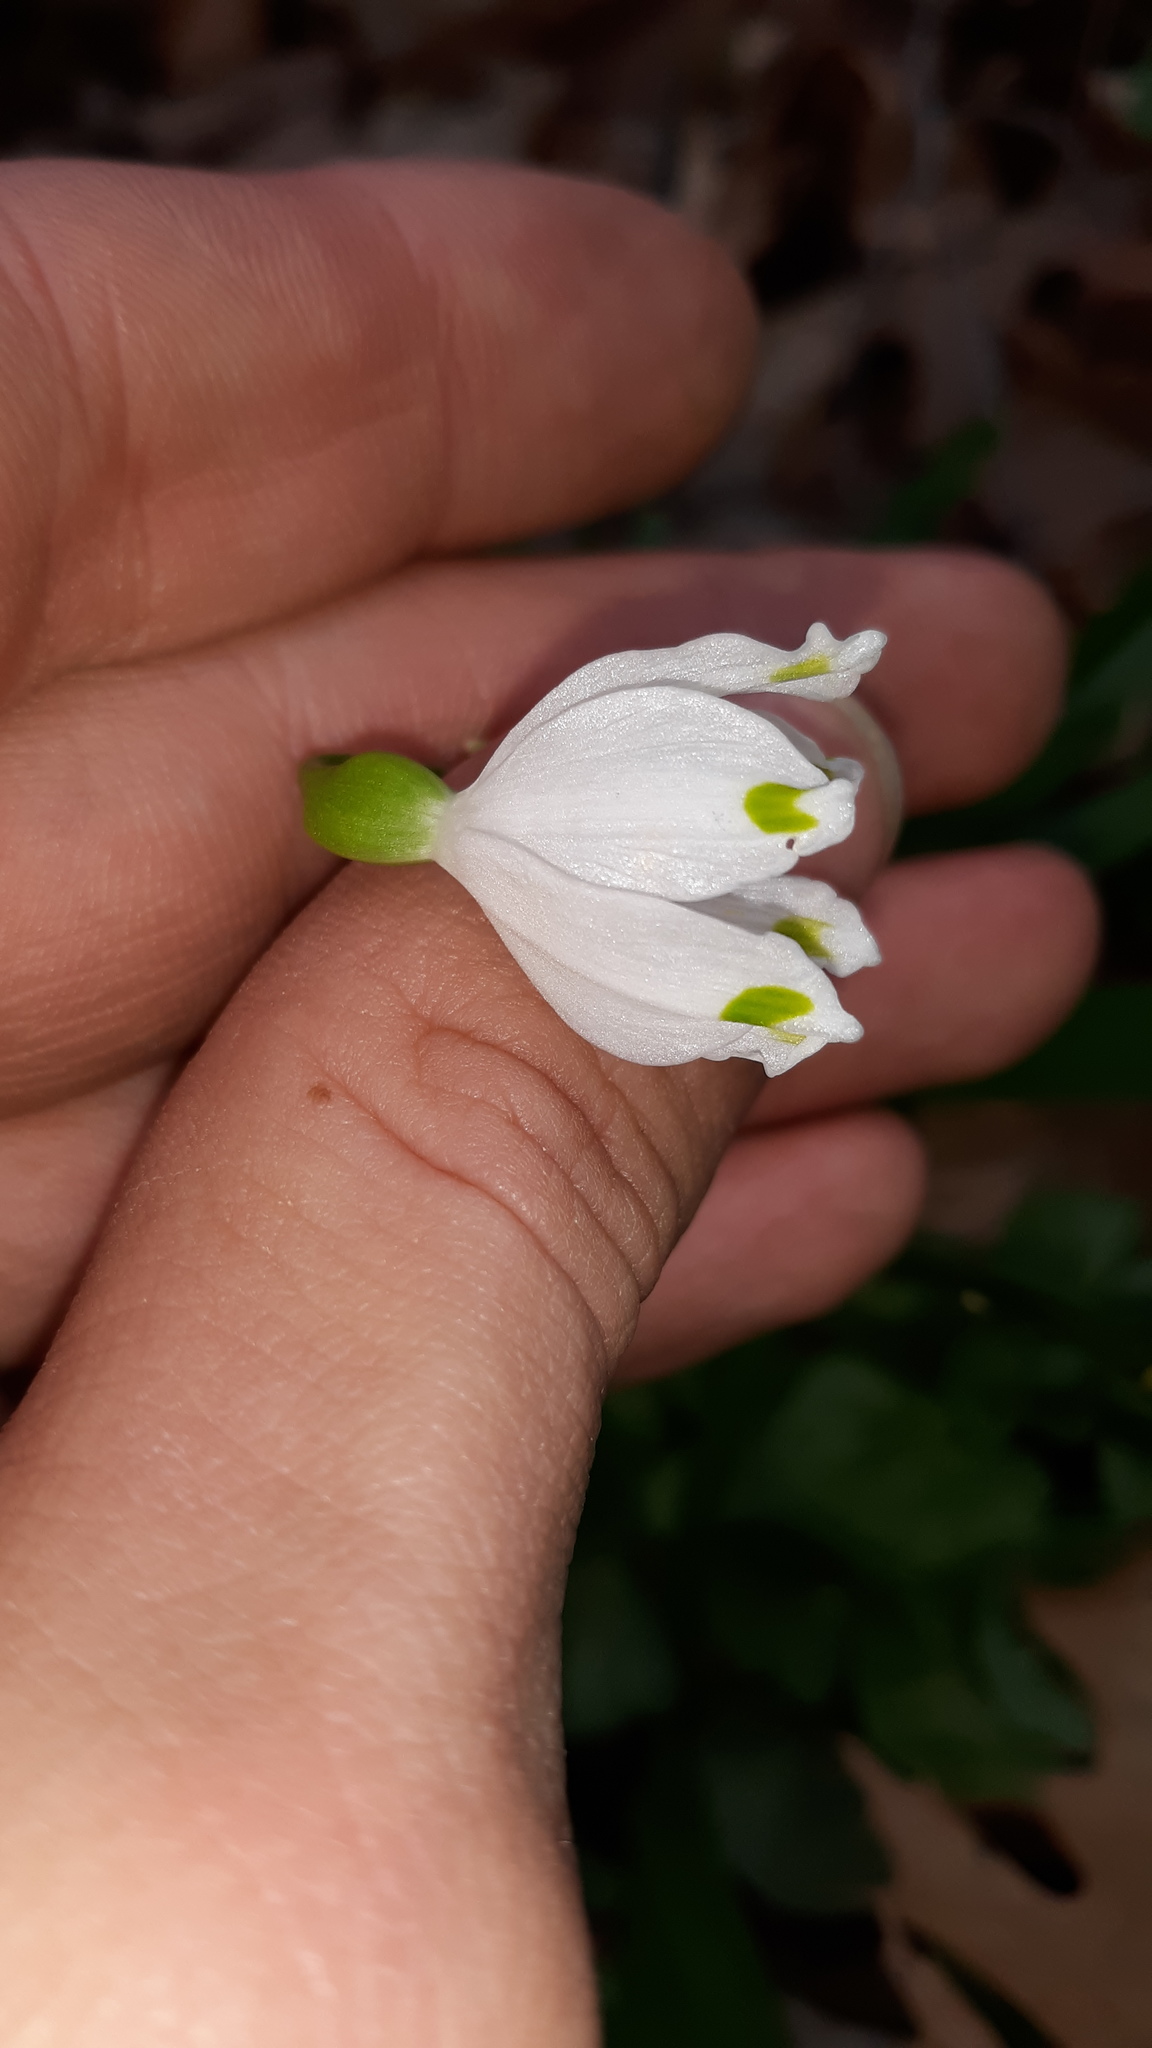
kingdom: Plantae
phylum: Tracheophyta
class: Liliopsida
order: Asparagales
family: Amaryllidaceae
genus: Leucojum
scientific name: Leucojum vernum
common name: Spring snowflake
